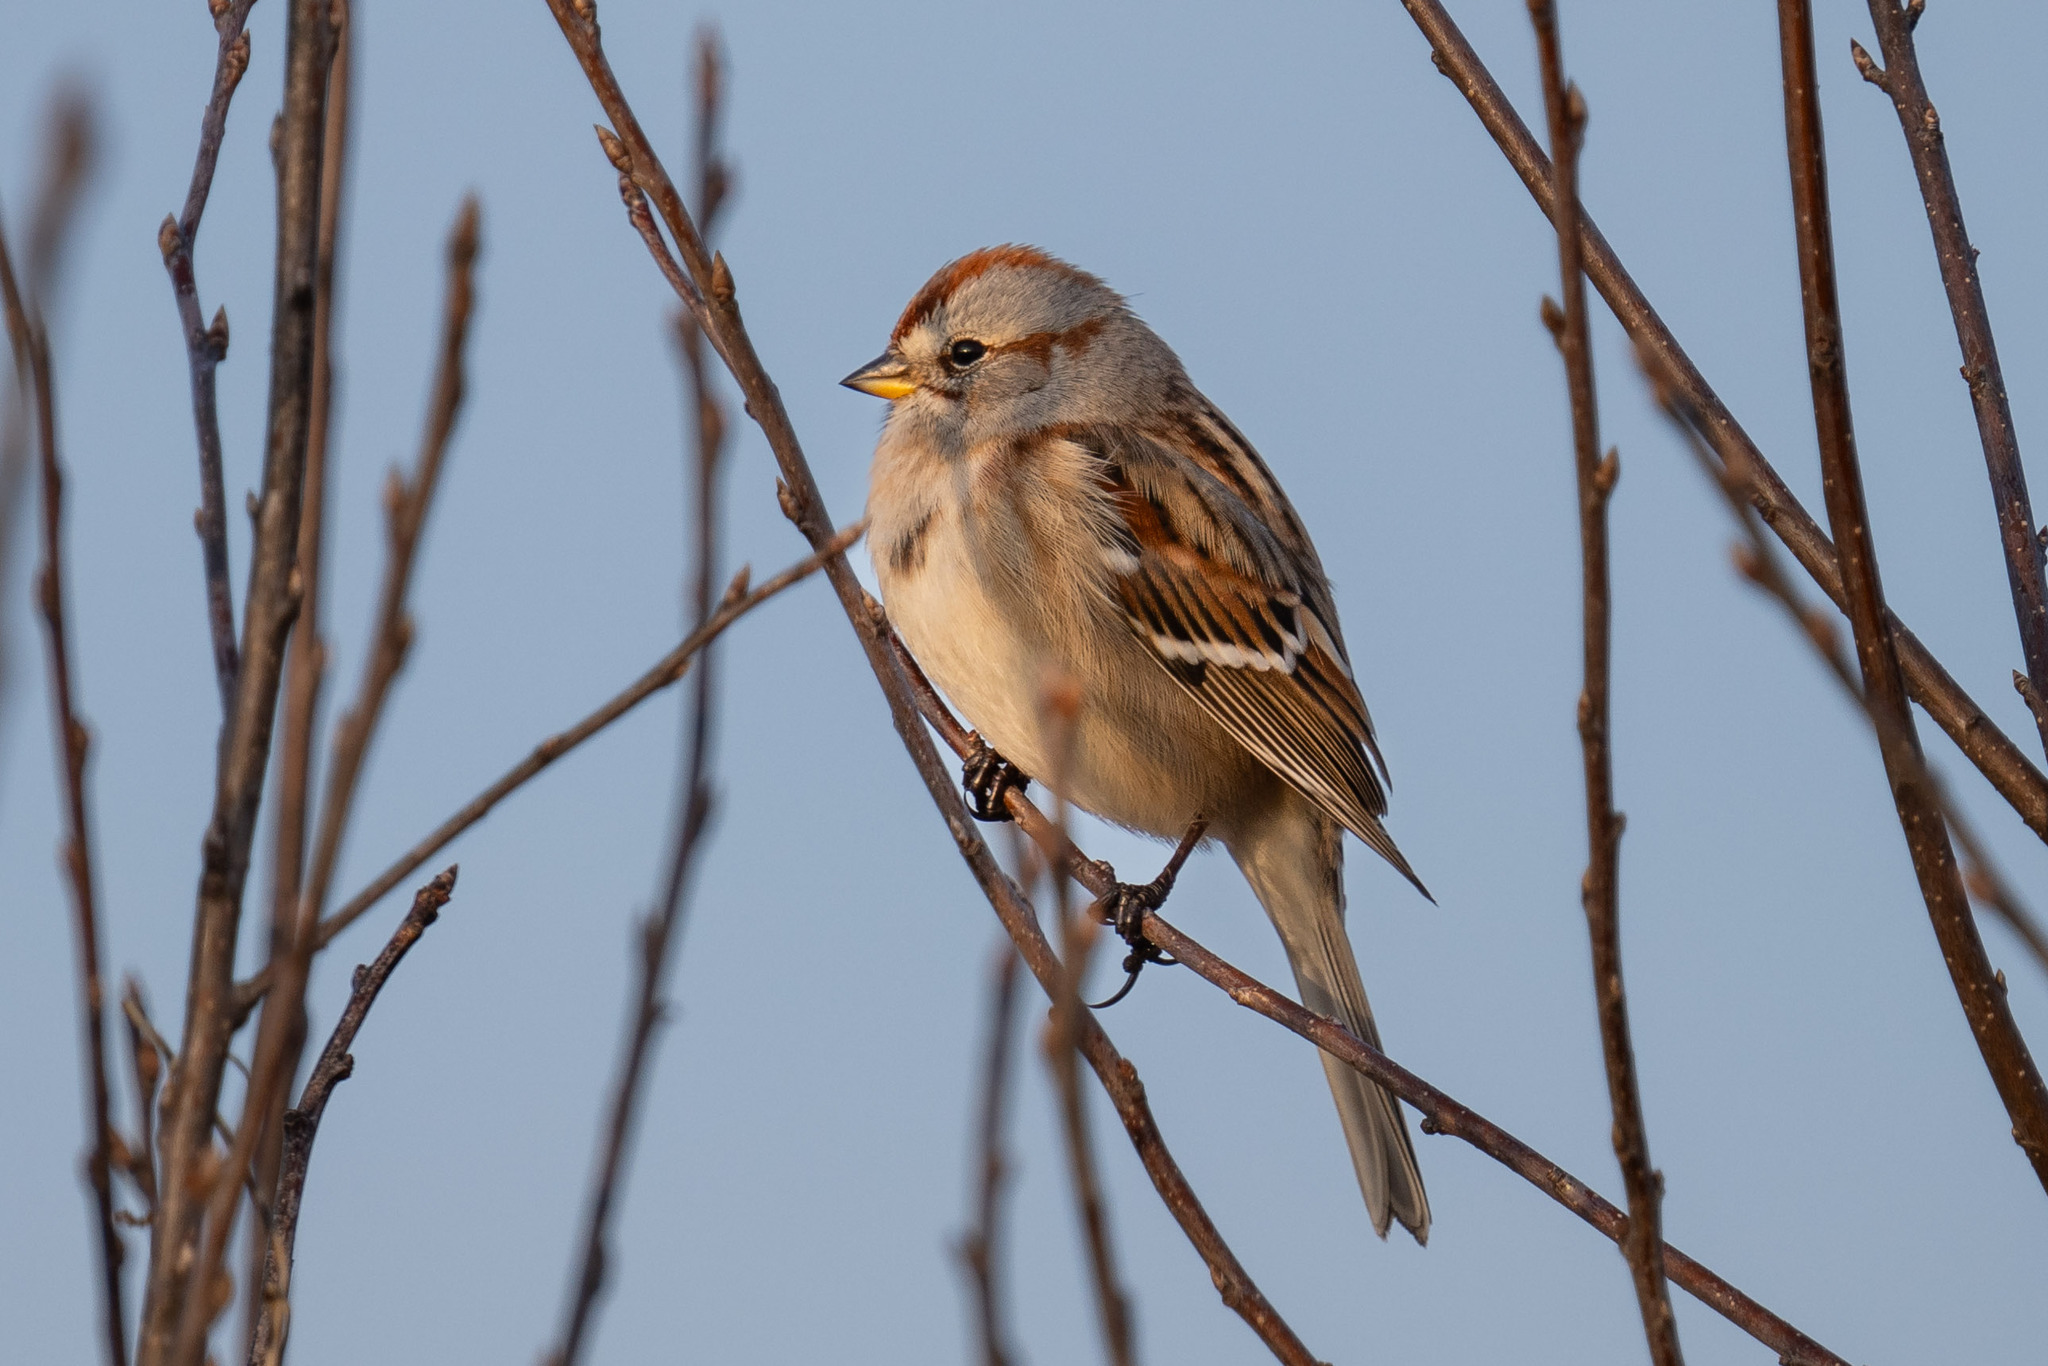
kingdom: Animalia
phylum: Chordata
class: Aves
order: Passeriformes
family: Passerellidae
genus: Spizelloides
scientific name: Spizelloides arborea
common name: American tree sparrow
